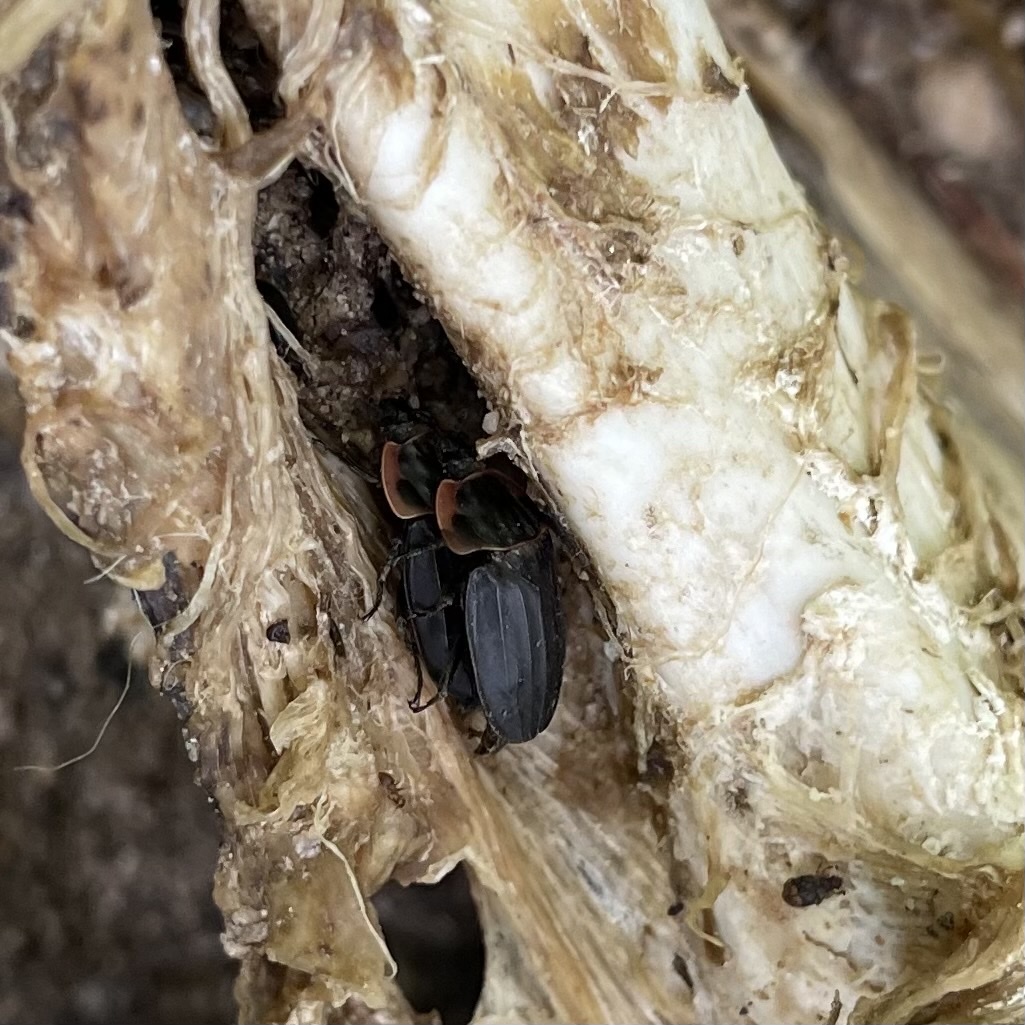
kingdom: Animalia
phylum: Arthropoda
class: Insecta
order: Coleoptera
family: Staphylinidae
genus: Oiceoptoma
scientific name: Oiceoptoma noveboracense
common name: Margined carrion beetle
